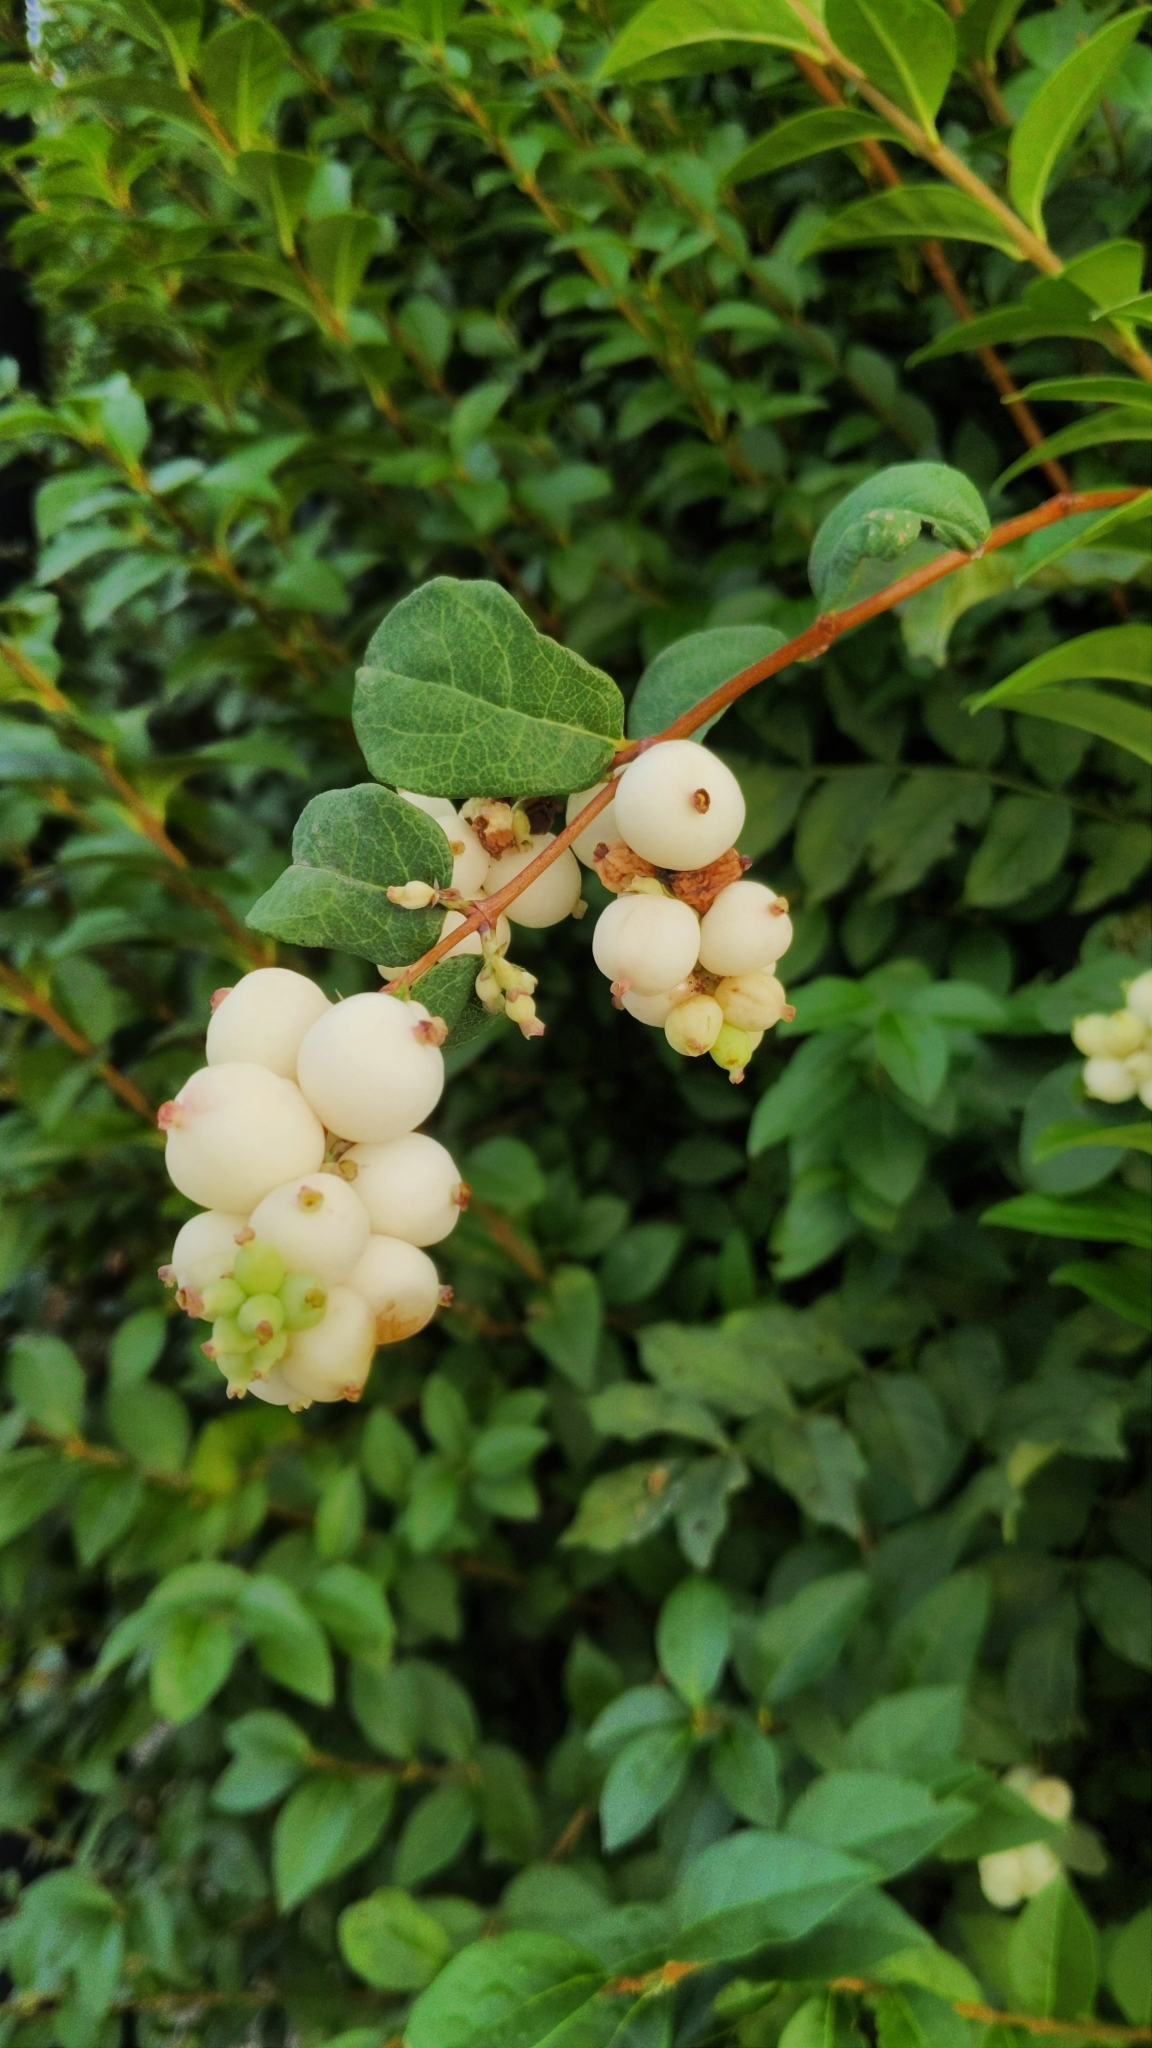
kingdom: Plantae
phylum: Tracheophyta
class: Magnoliopsida
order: Dipsacales
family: Caprifoliaceae
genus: Symphoricarpos
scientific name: Symphoricarpos albus
